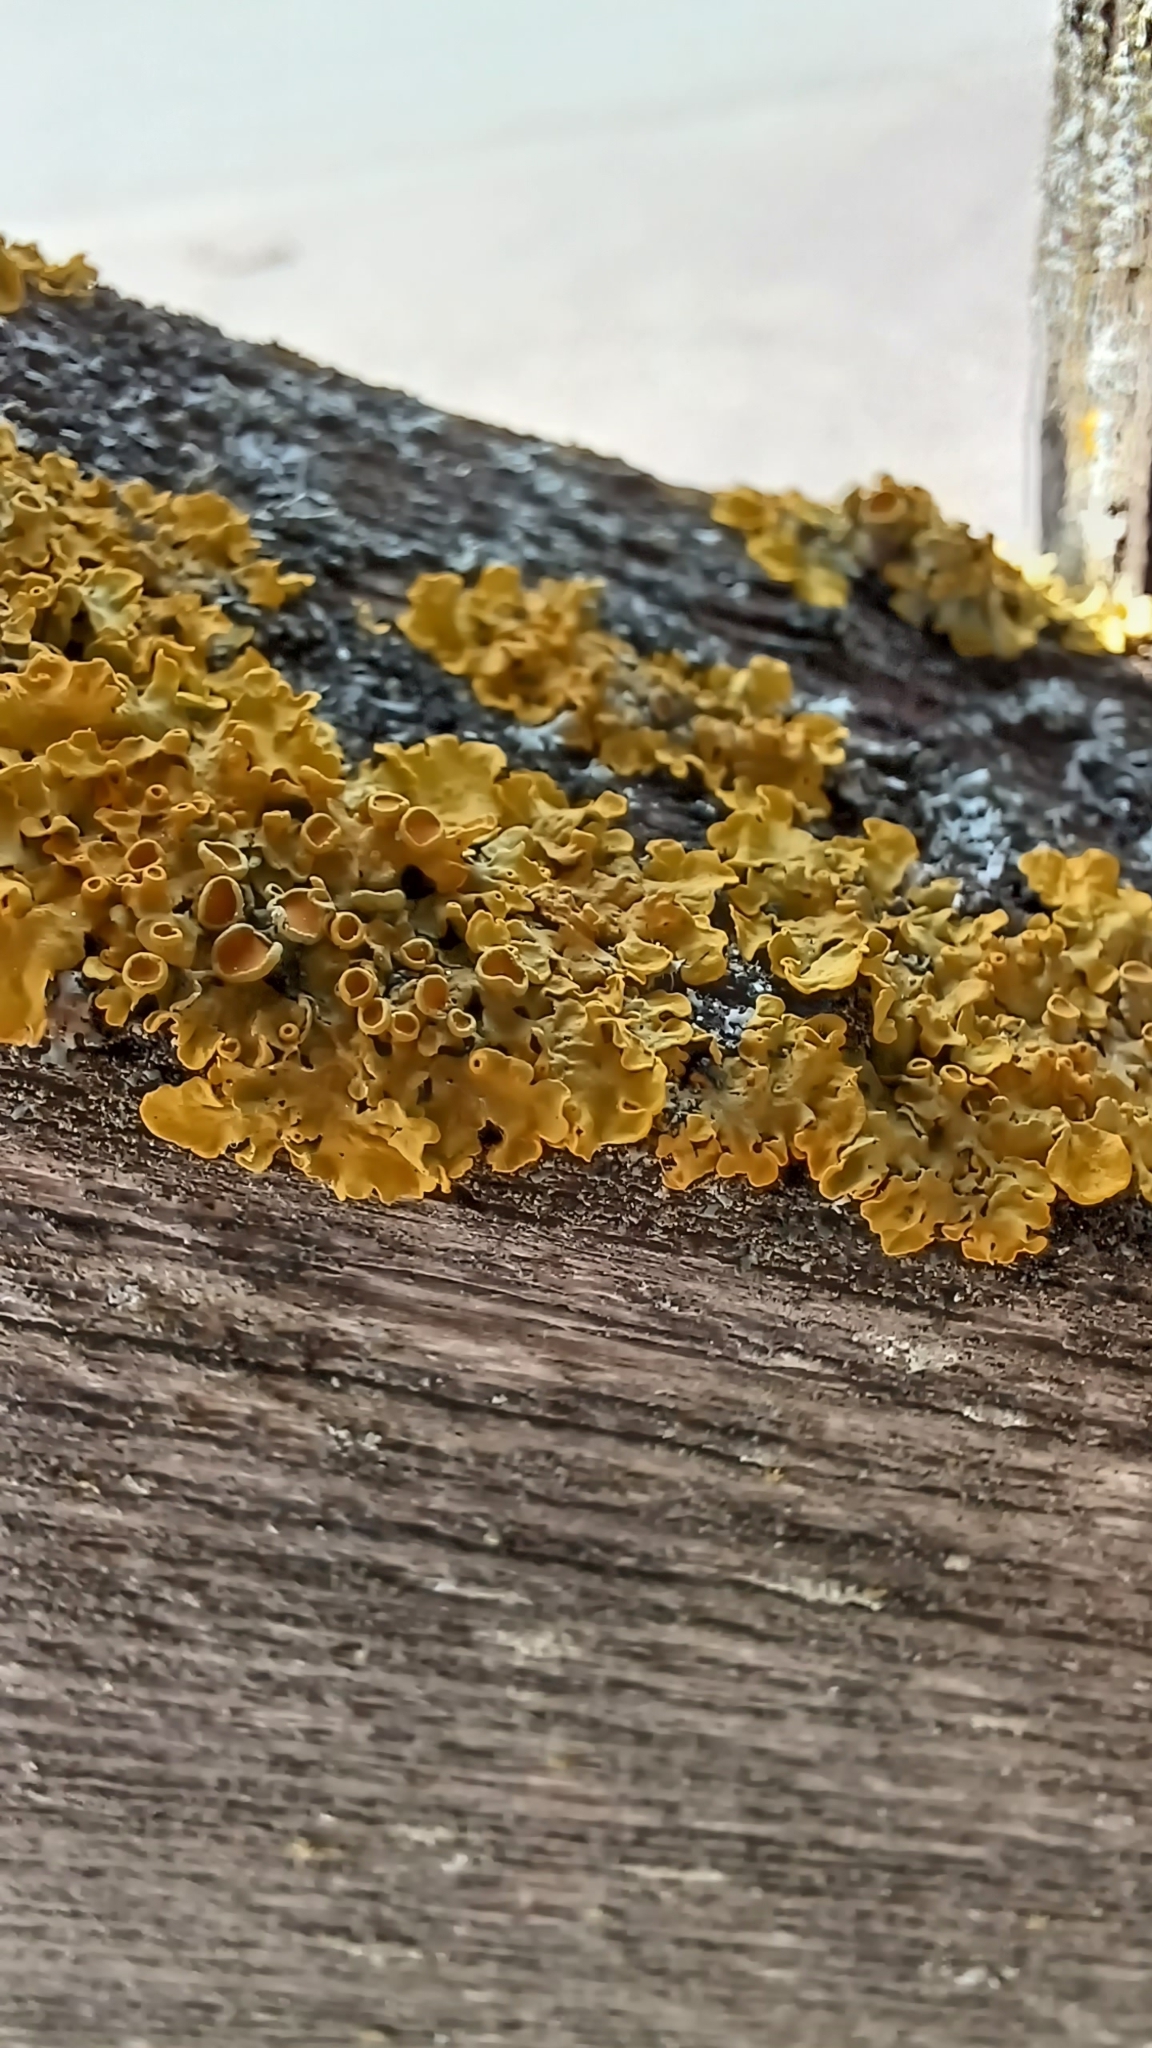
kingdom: Fungi
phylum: Ascomycota
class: Lecanoromycetes
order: Teloschistales
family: Teloschistaceae
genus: Xanthoria
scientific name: Xanthoria parietina
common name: Common orange lichen
